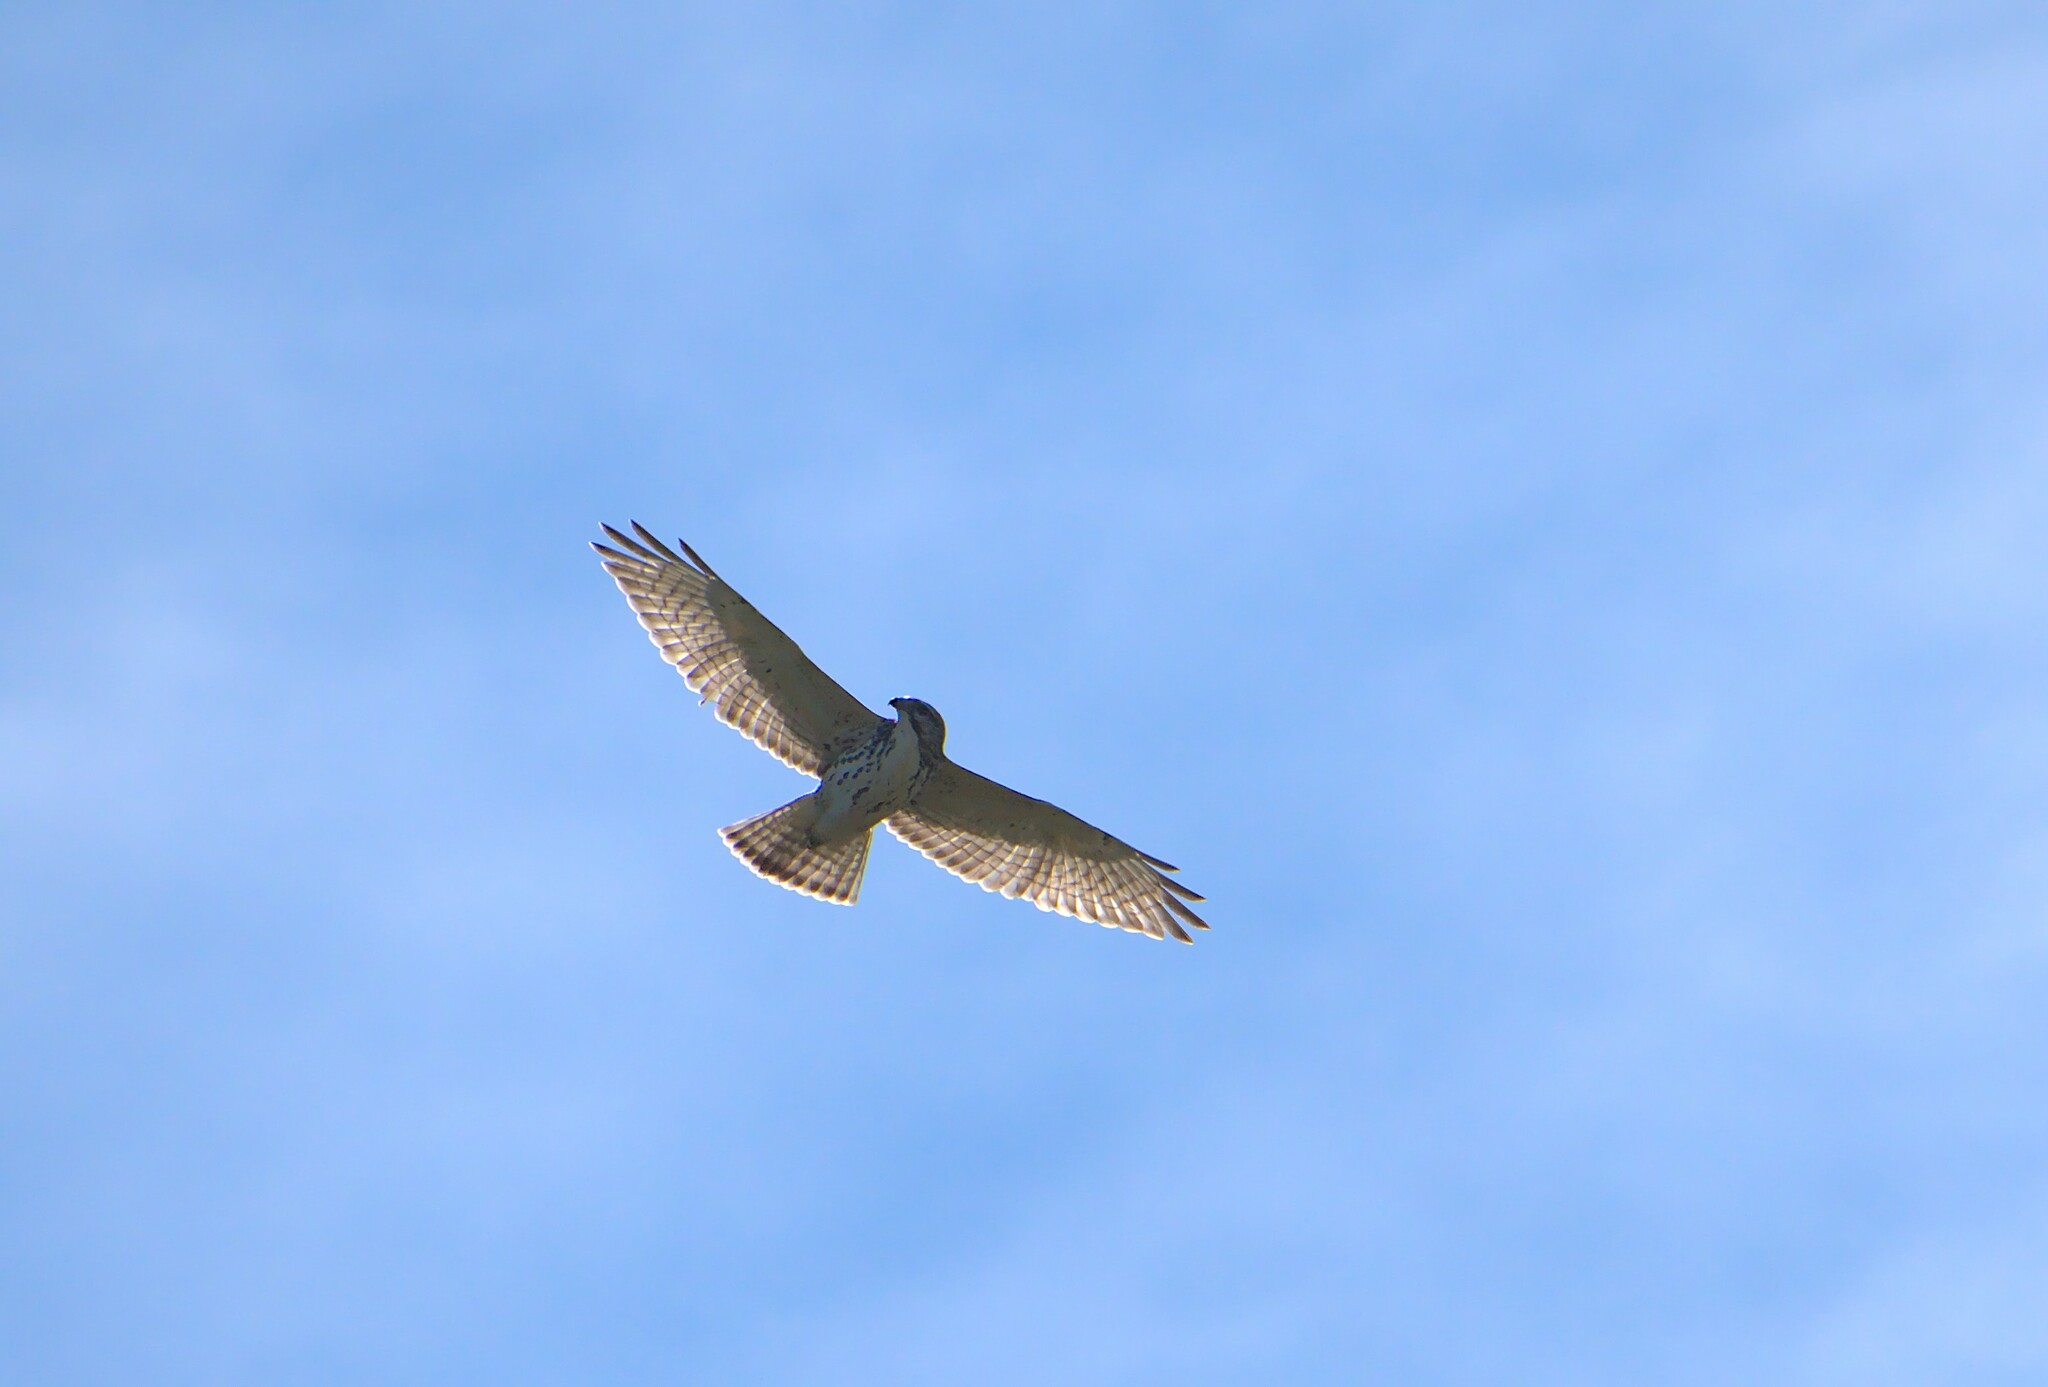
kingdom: Animalia
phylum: Chordata
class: Aves
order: Accipitriformes
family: Accipitridae
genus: Buteo
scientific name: Buteo platypterus
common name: Broad-winged hawk
